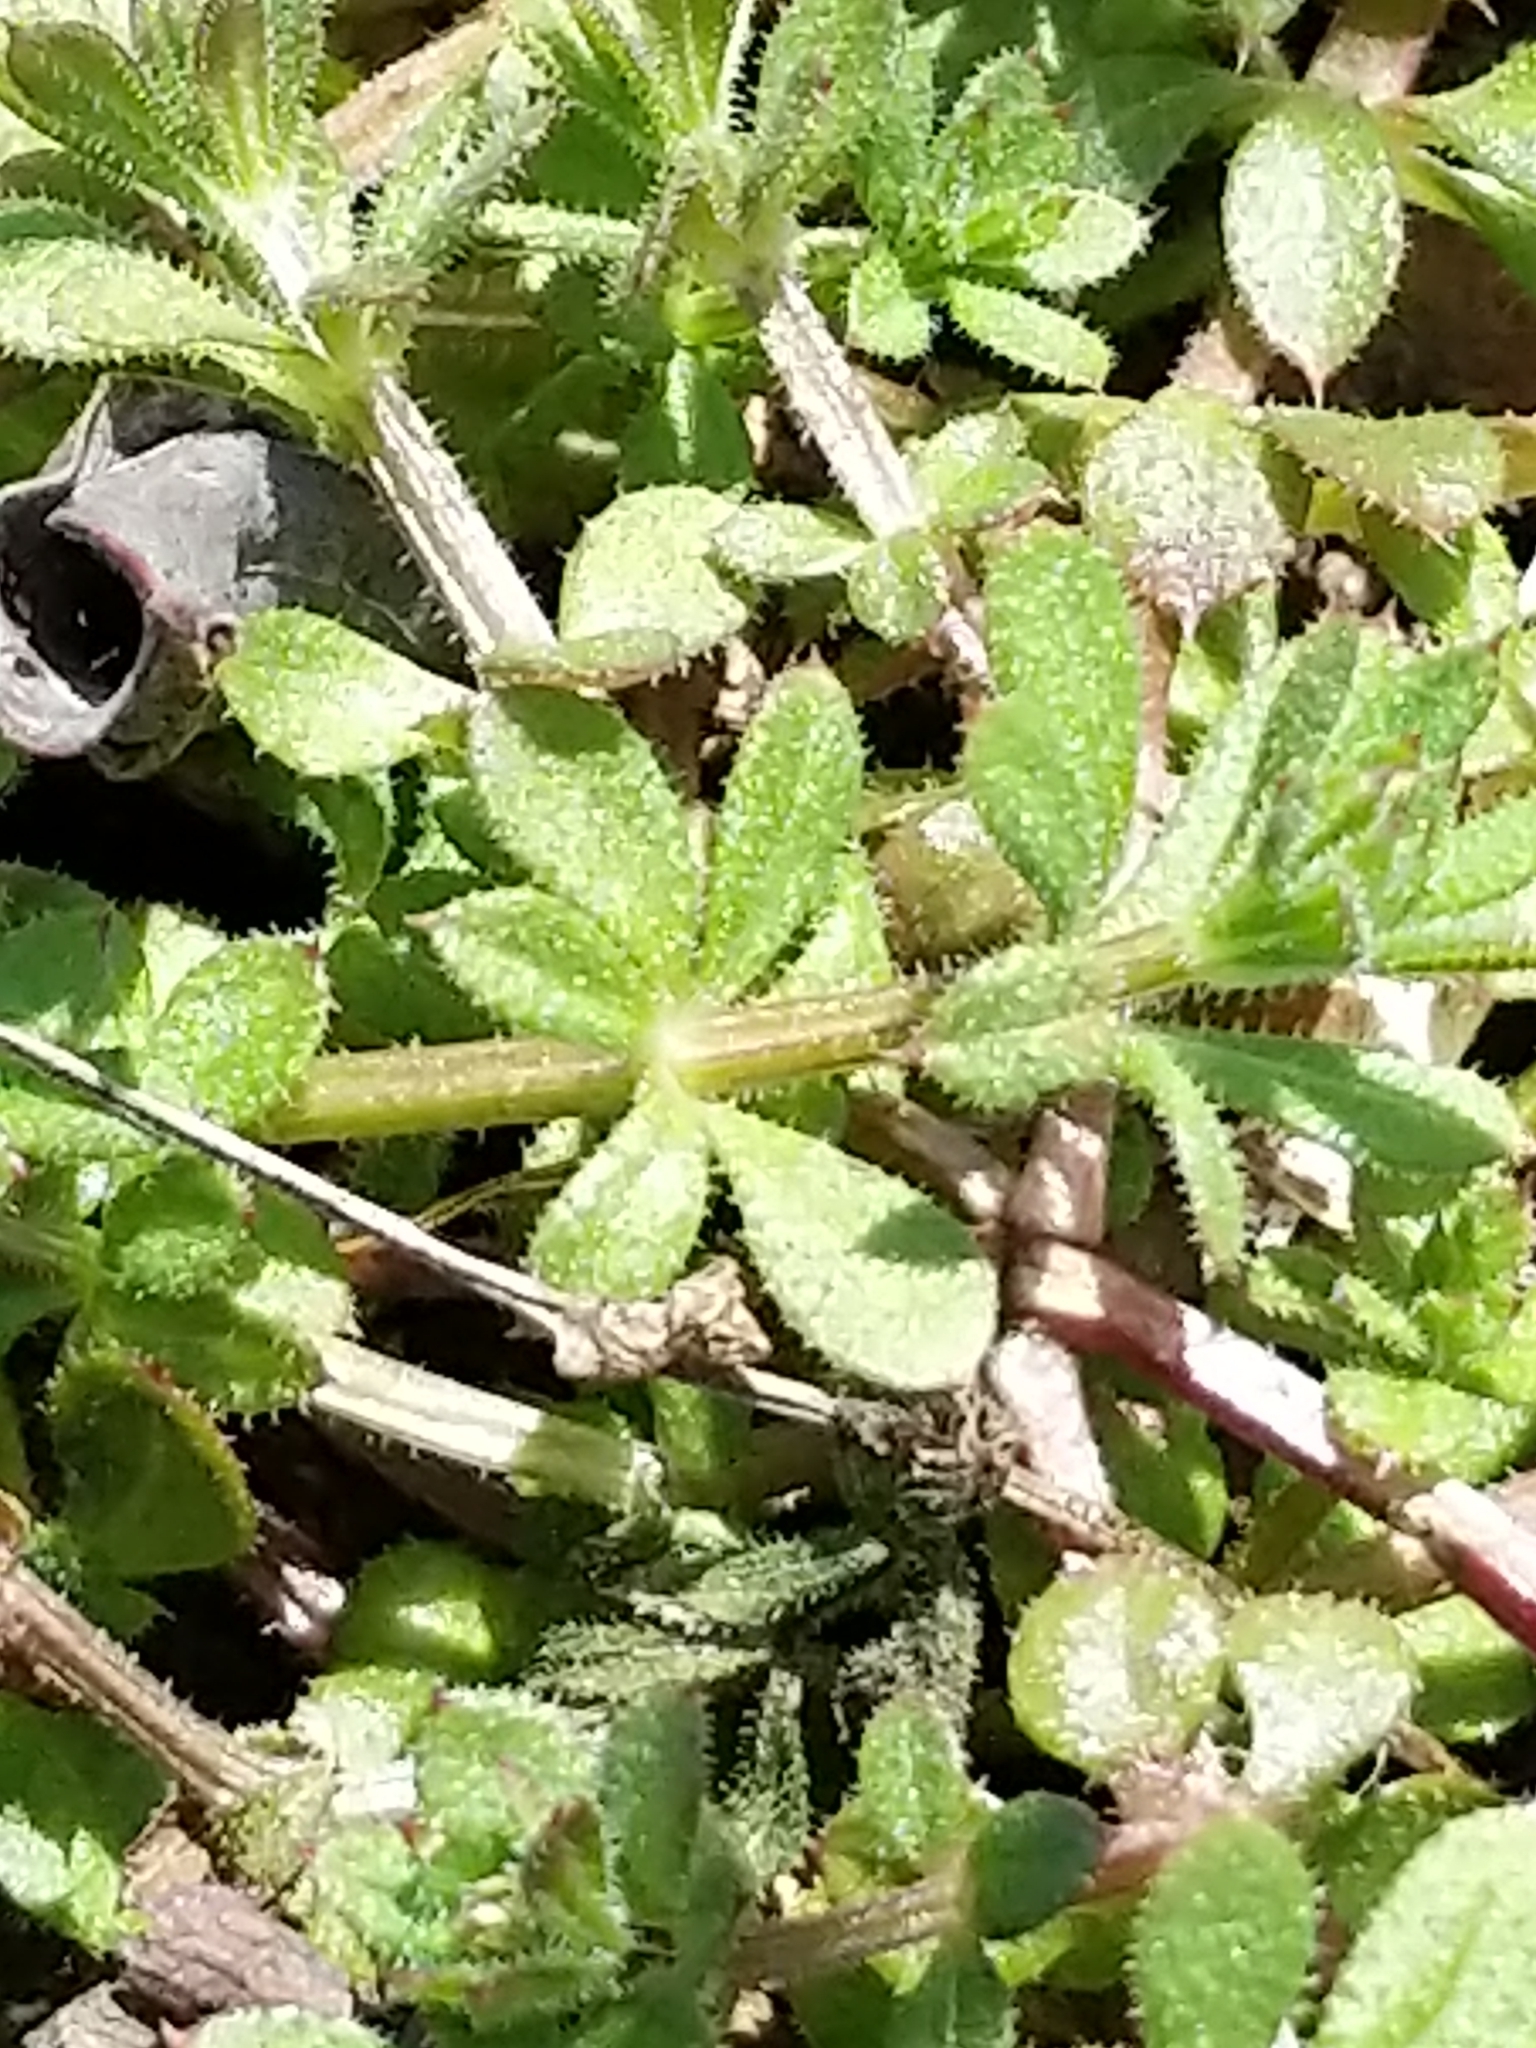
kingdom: Plantae
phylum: Tracheophyta
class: Magnoliopsida
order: Gentianales
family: Rubiaceae
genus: Galium
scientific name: Galium aparine
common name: Cleavers
